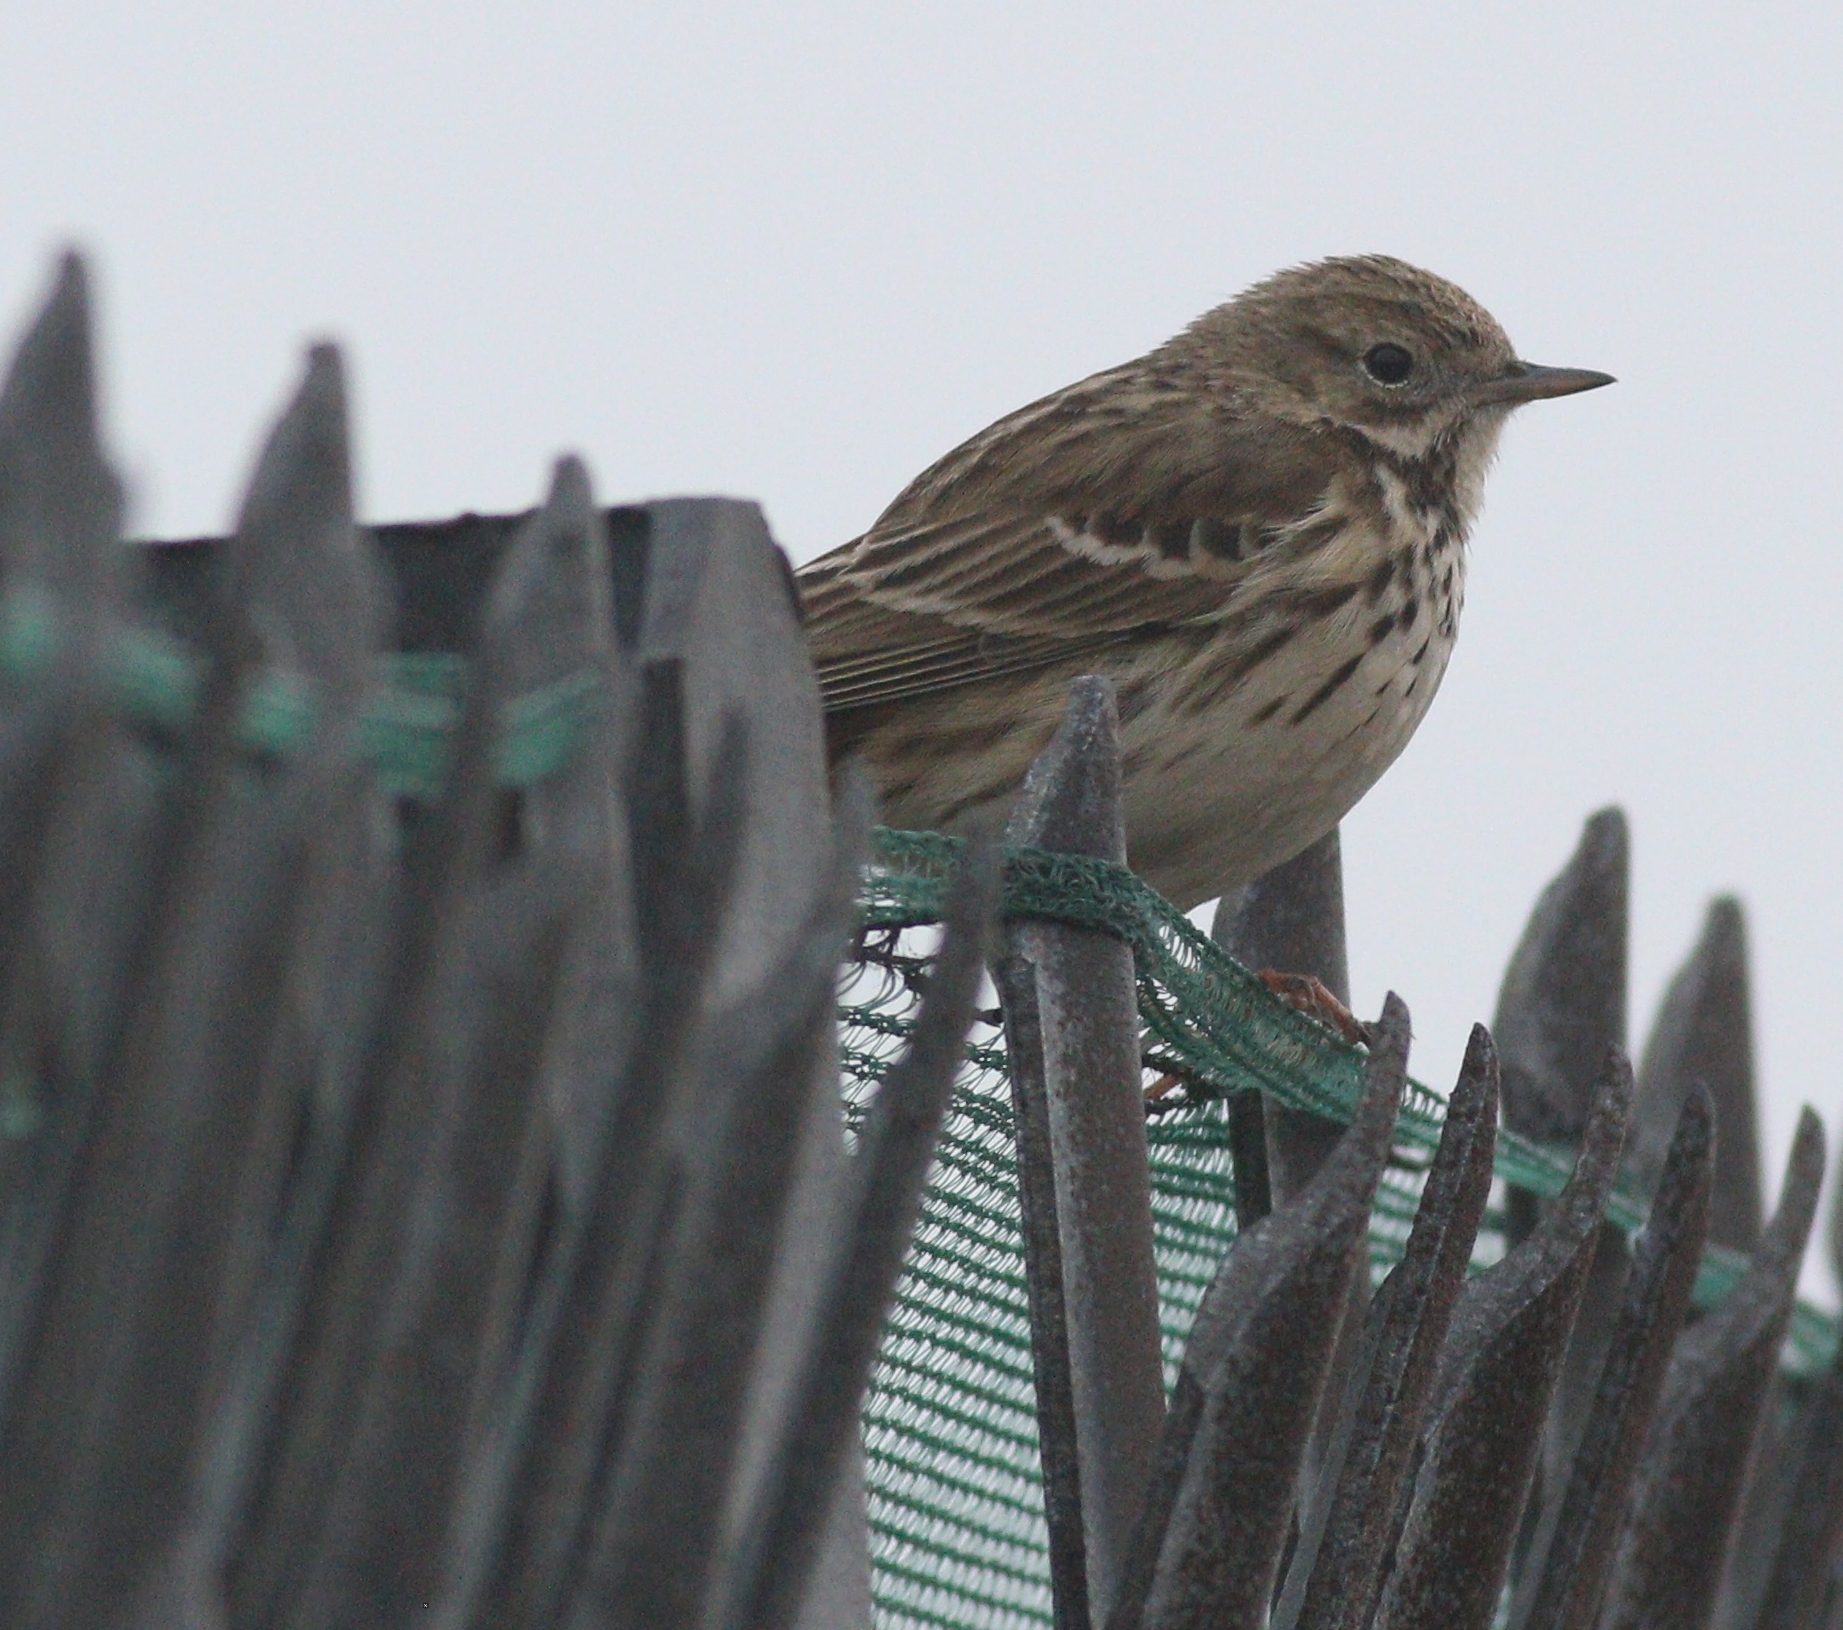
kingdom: Animalia
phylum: Chordata
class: Aves
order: Passeriformes
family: Motacillidae
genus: Anthus
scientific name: Anthus pratensis
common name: Meadow pipit
